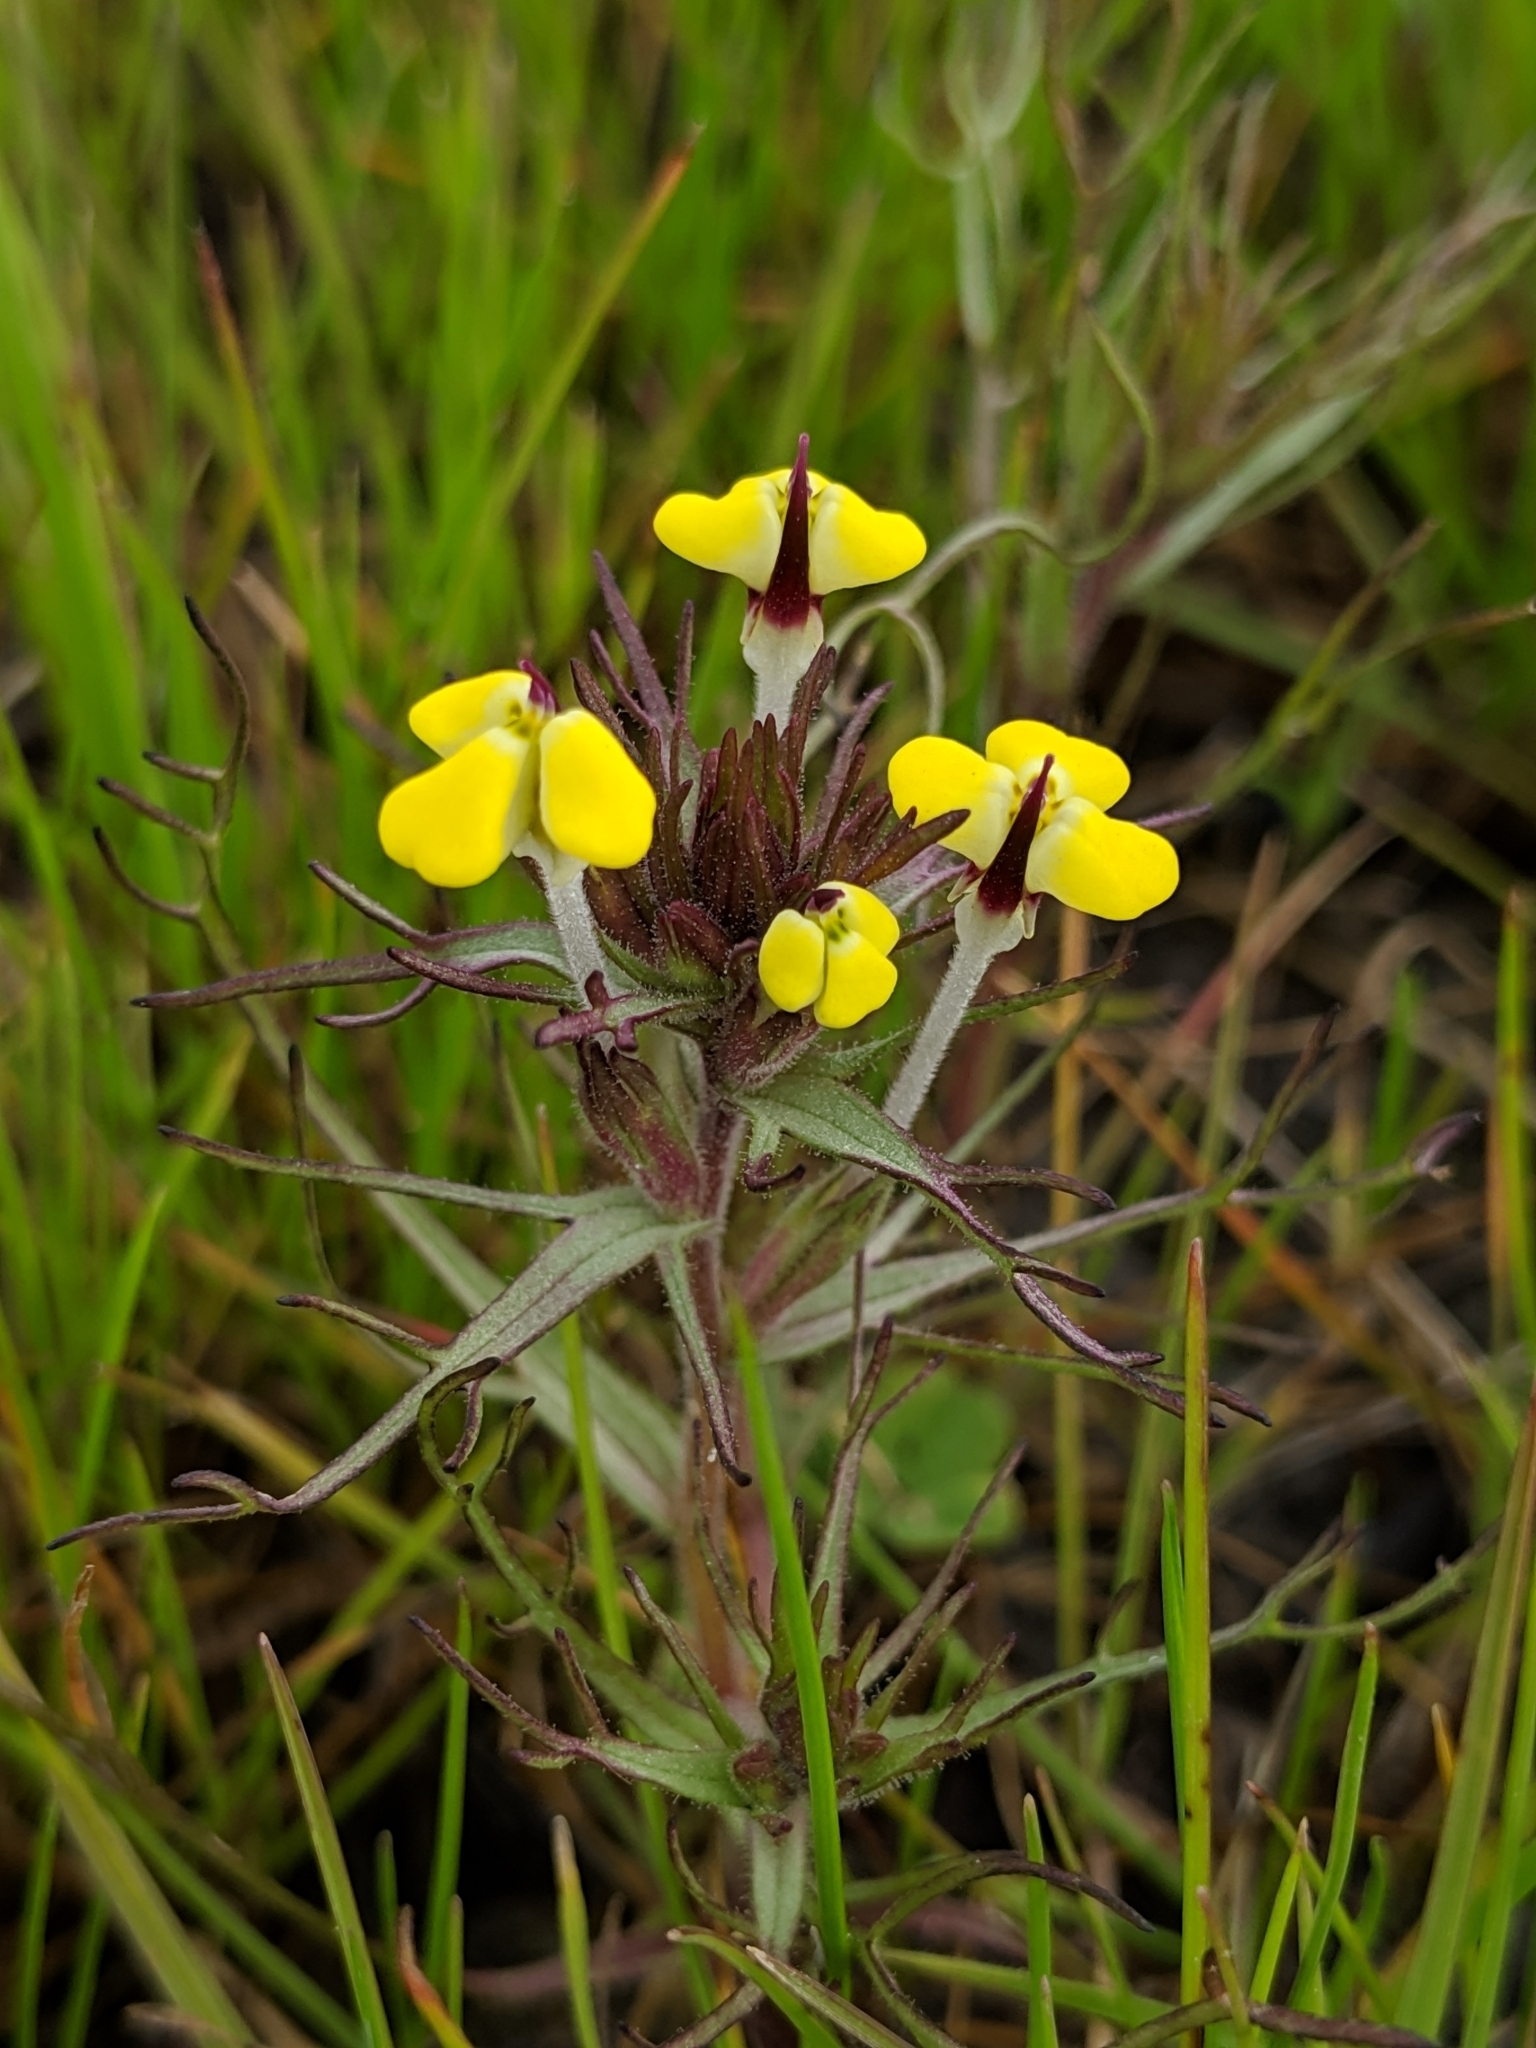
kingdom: Plantae
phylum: Tracheophyta
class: Magnoliopsida
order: Lamiales
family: Orobanchaceae
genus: Triphysaria
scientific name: Triphysaria eriantha
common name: Johnny-tuck
